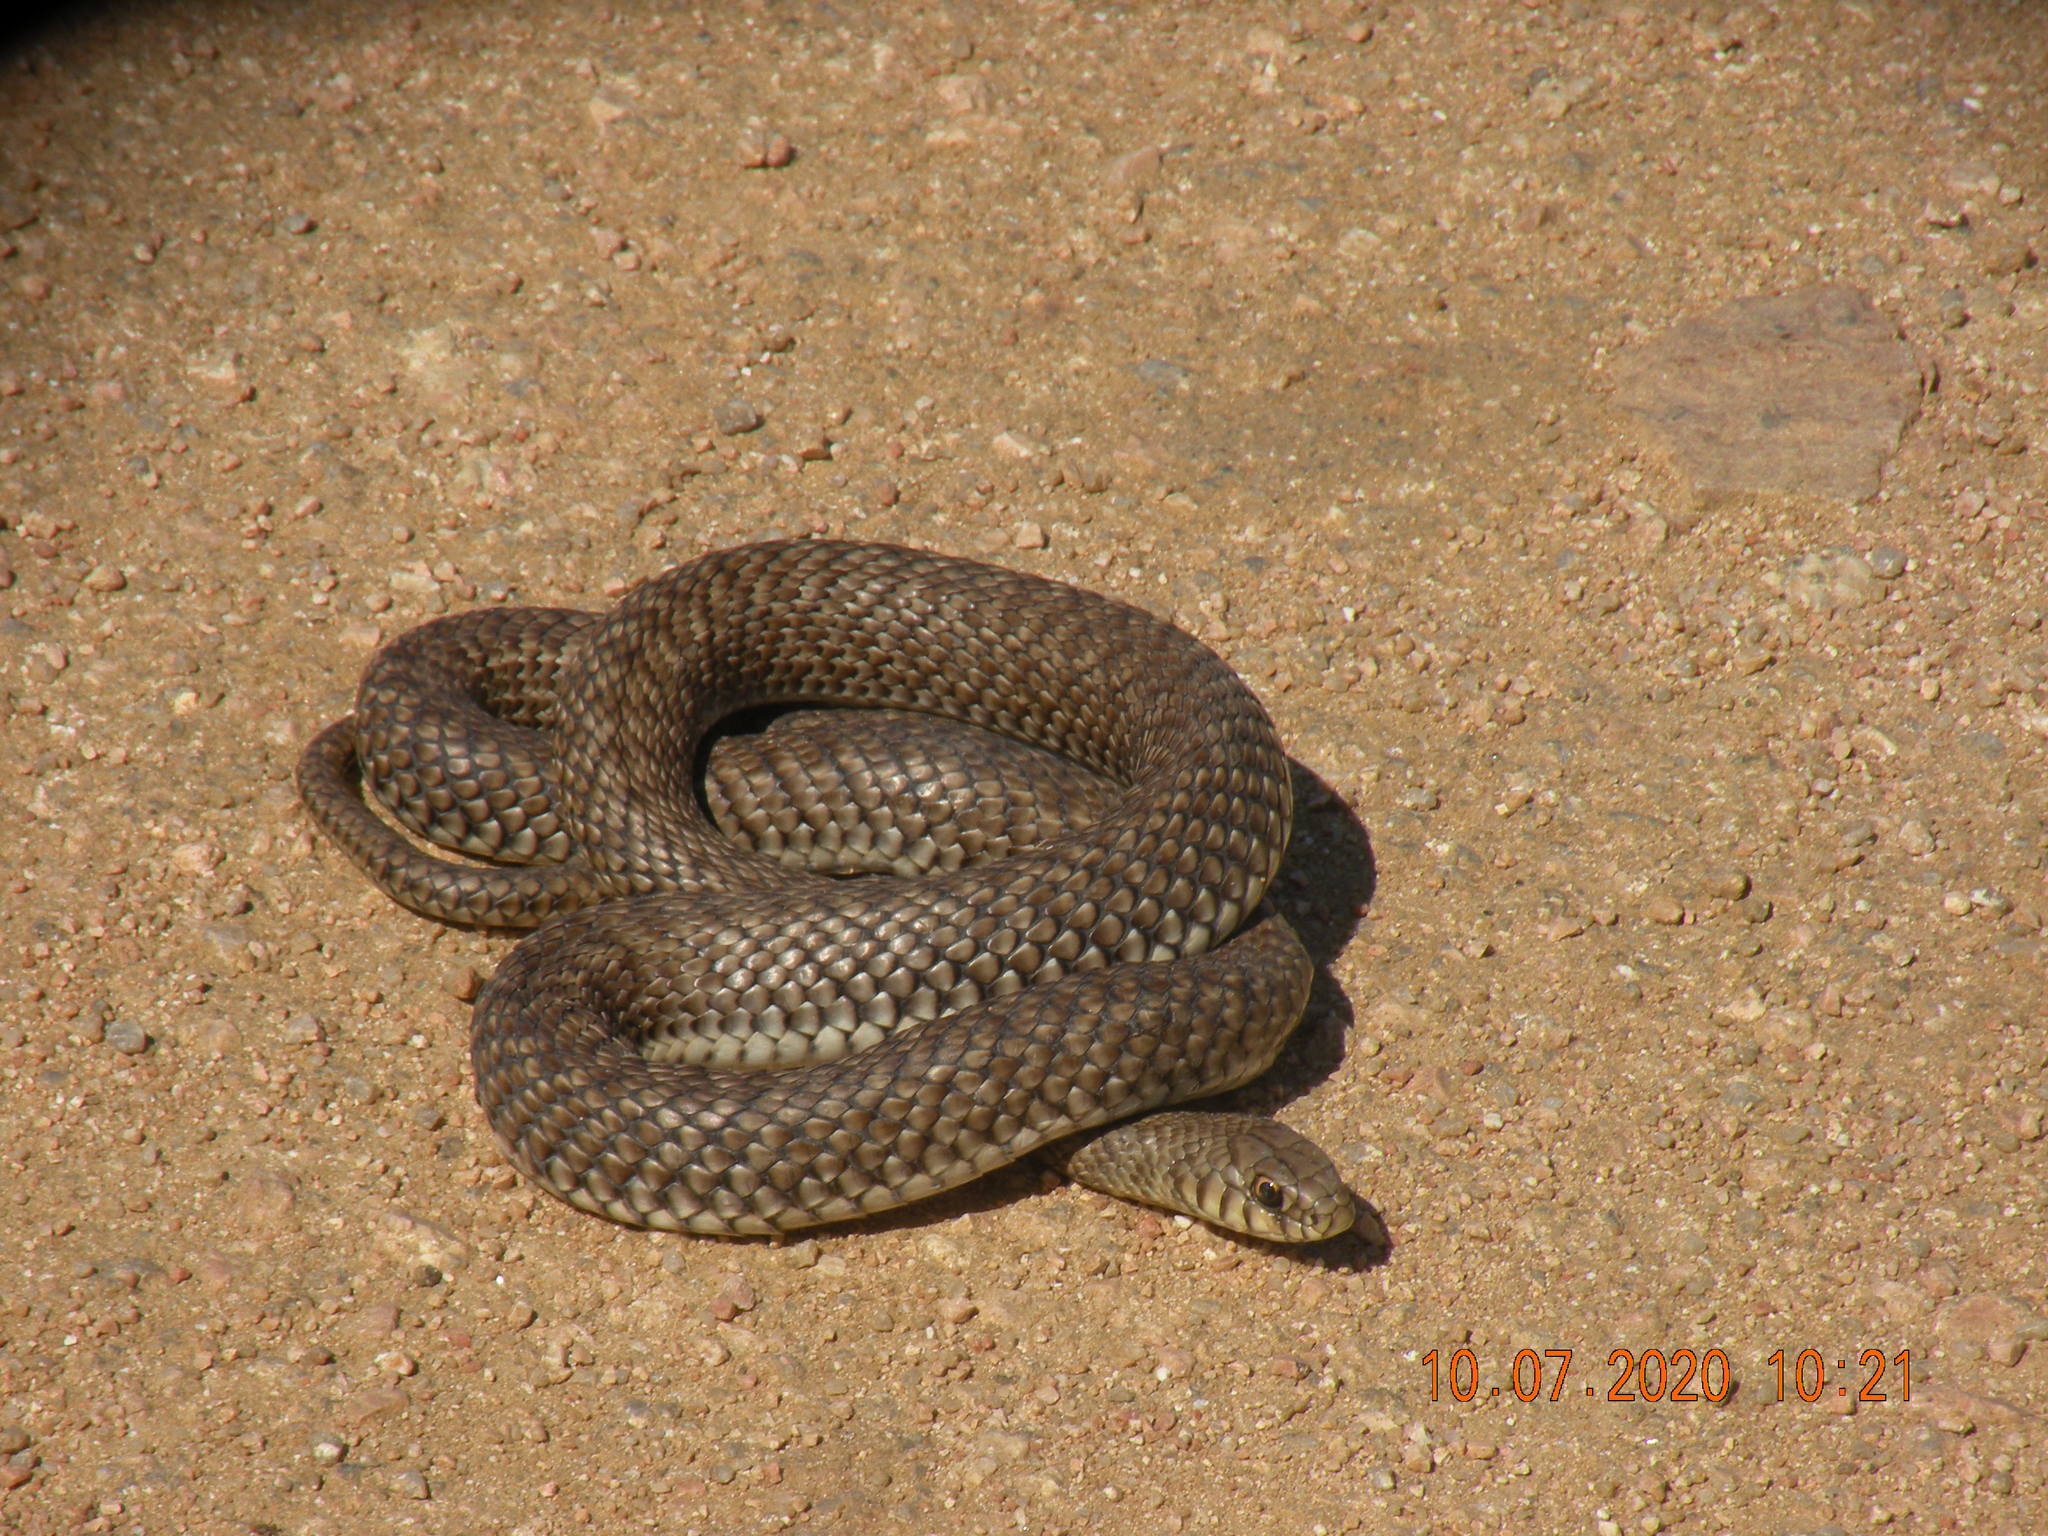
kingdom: Animalia
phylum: Chordata
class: Squamata
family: Colubridae
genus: Philodryas
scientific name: Philodryas patagoniensis
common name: Patagonia green racer
